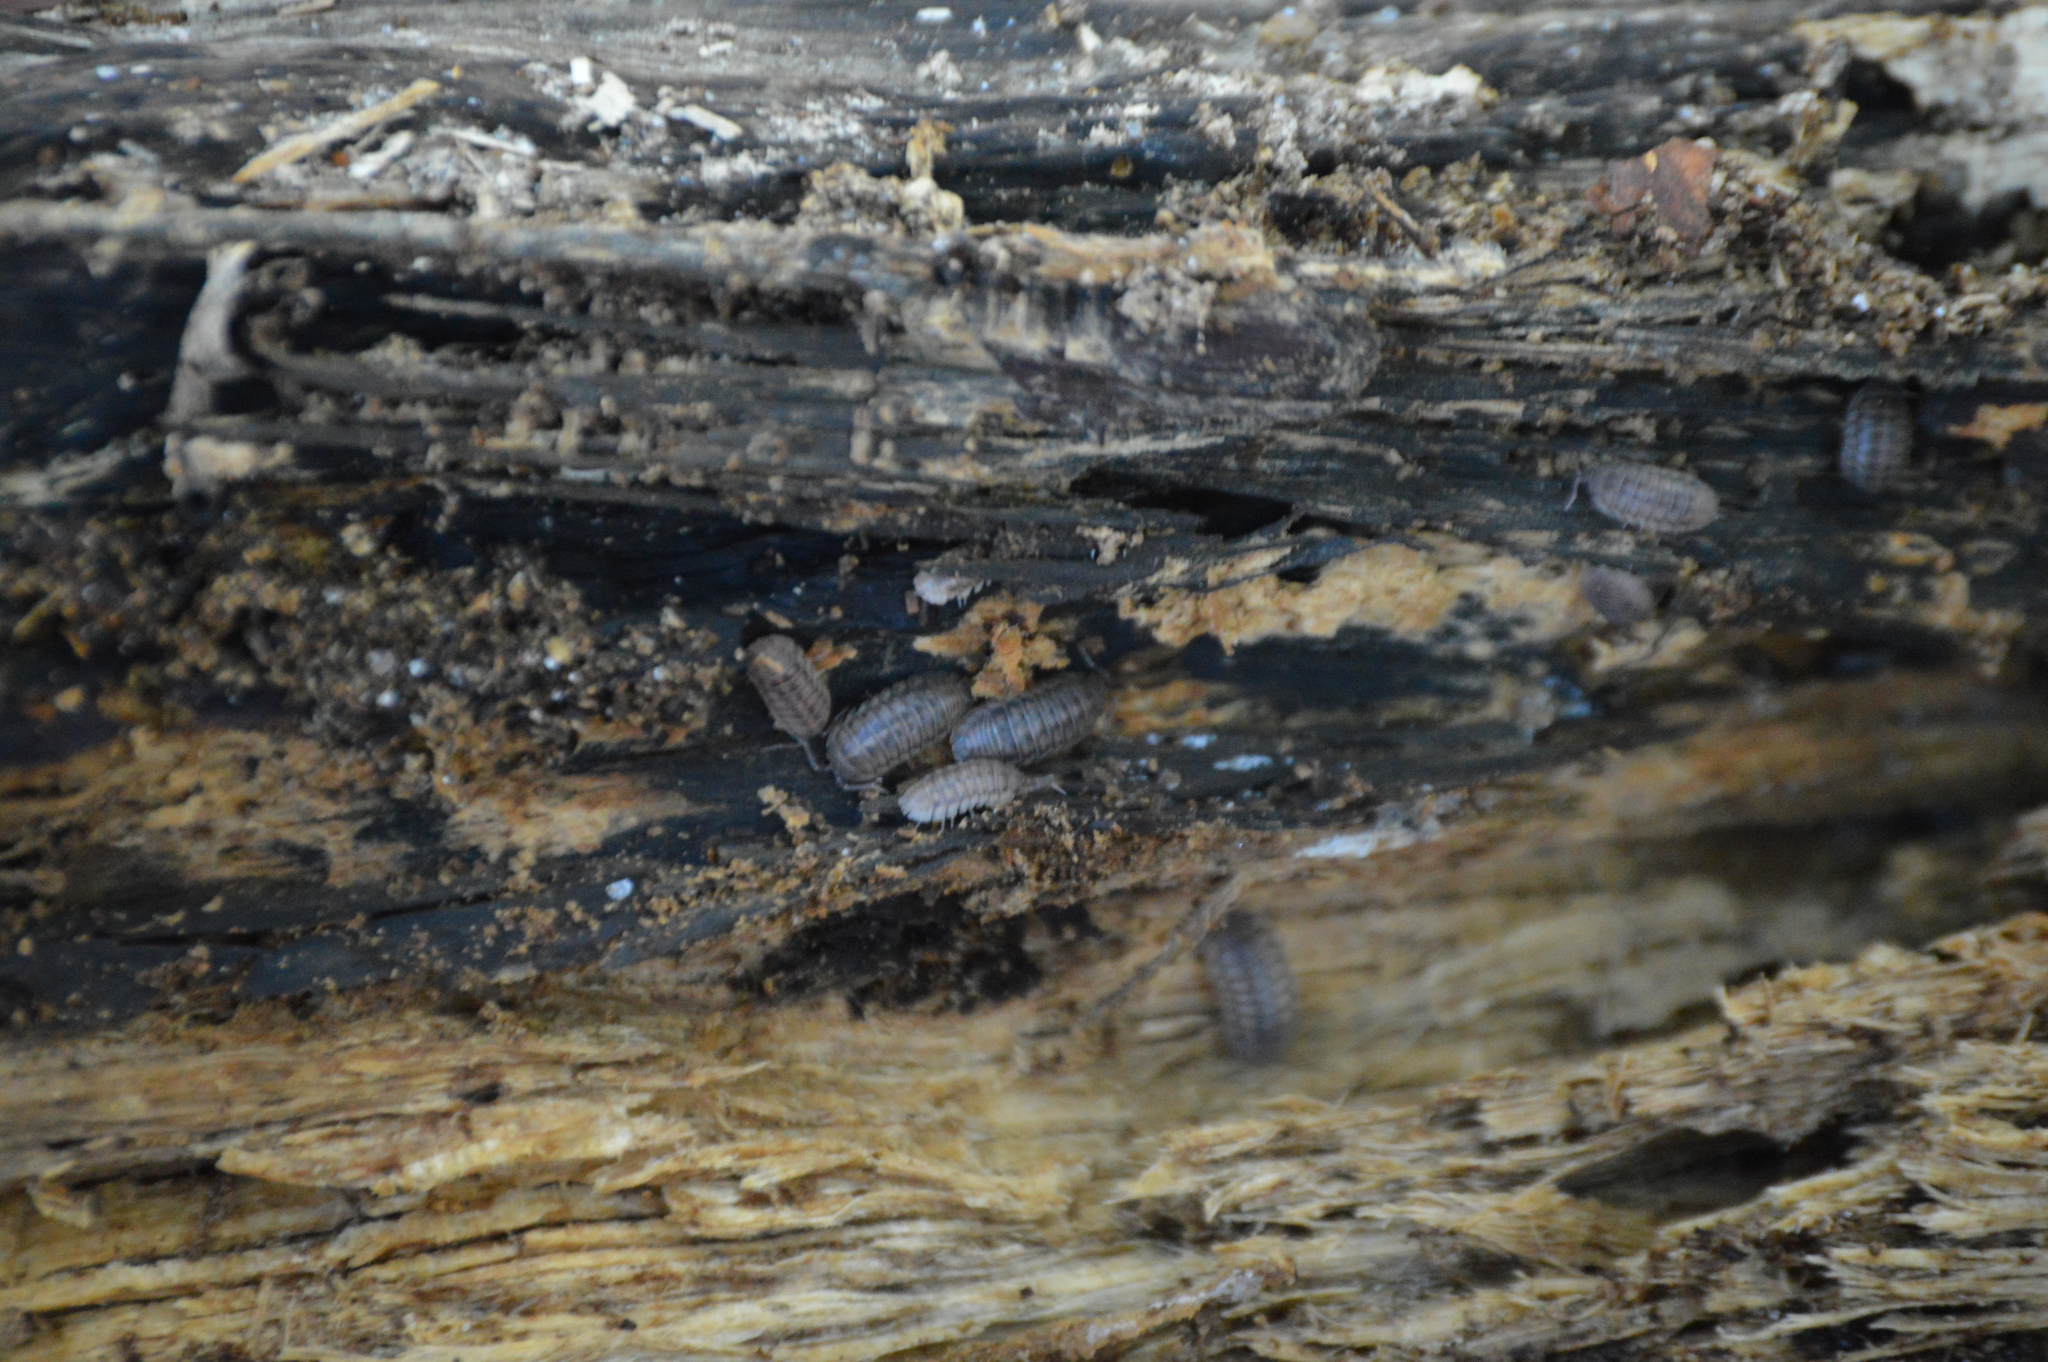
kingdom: Animalia
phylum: Arthropoda
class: Malacostraca
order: Isopoda
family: Armadillidiidae
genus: Armadillidium
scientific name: Armadillidium nasatum
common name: Isopod
